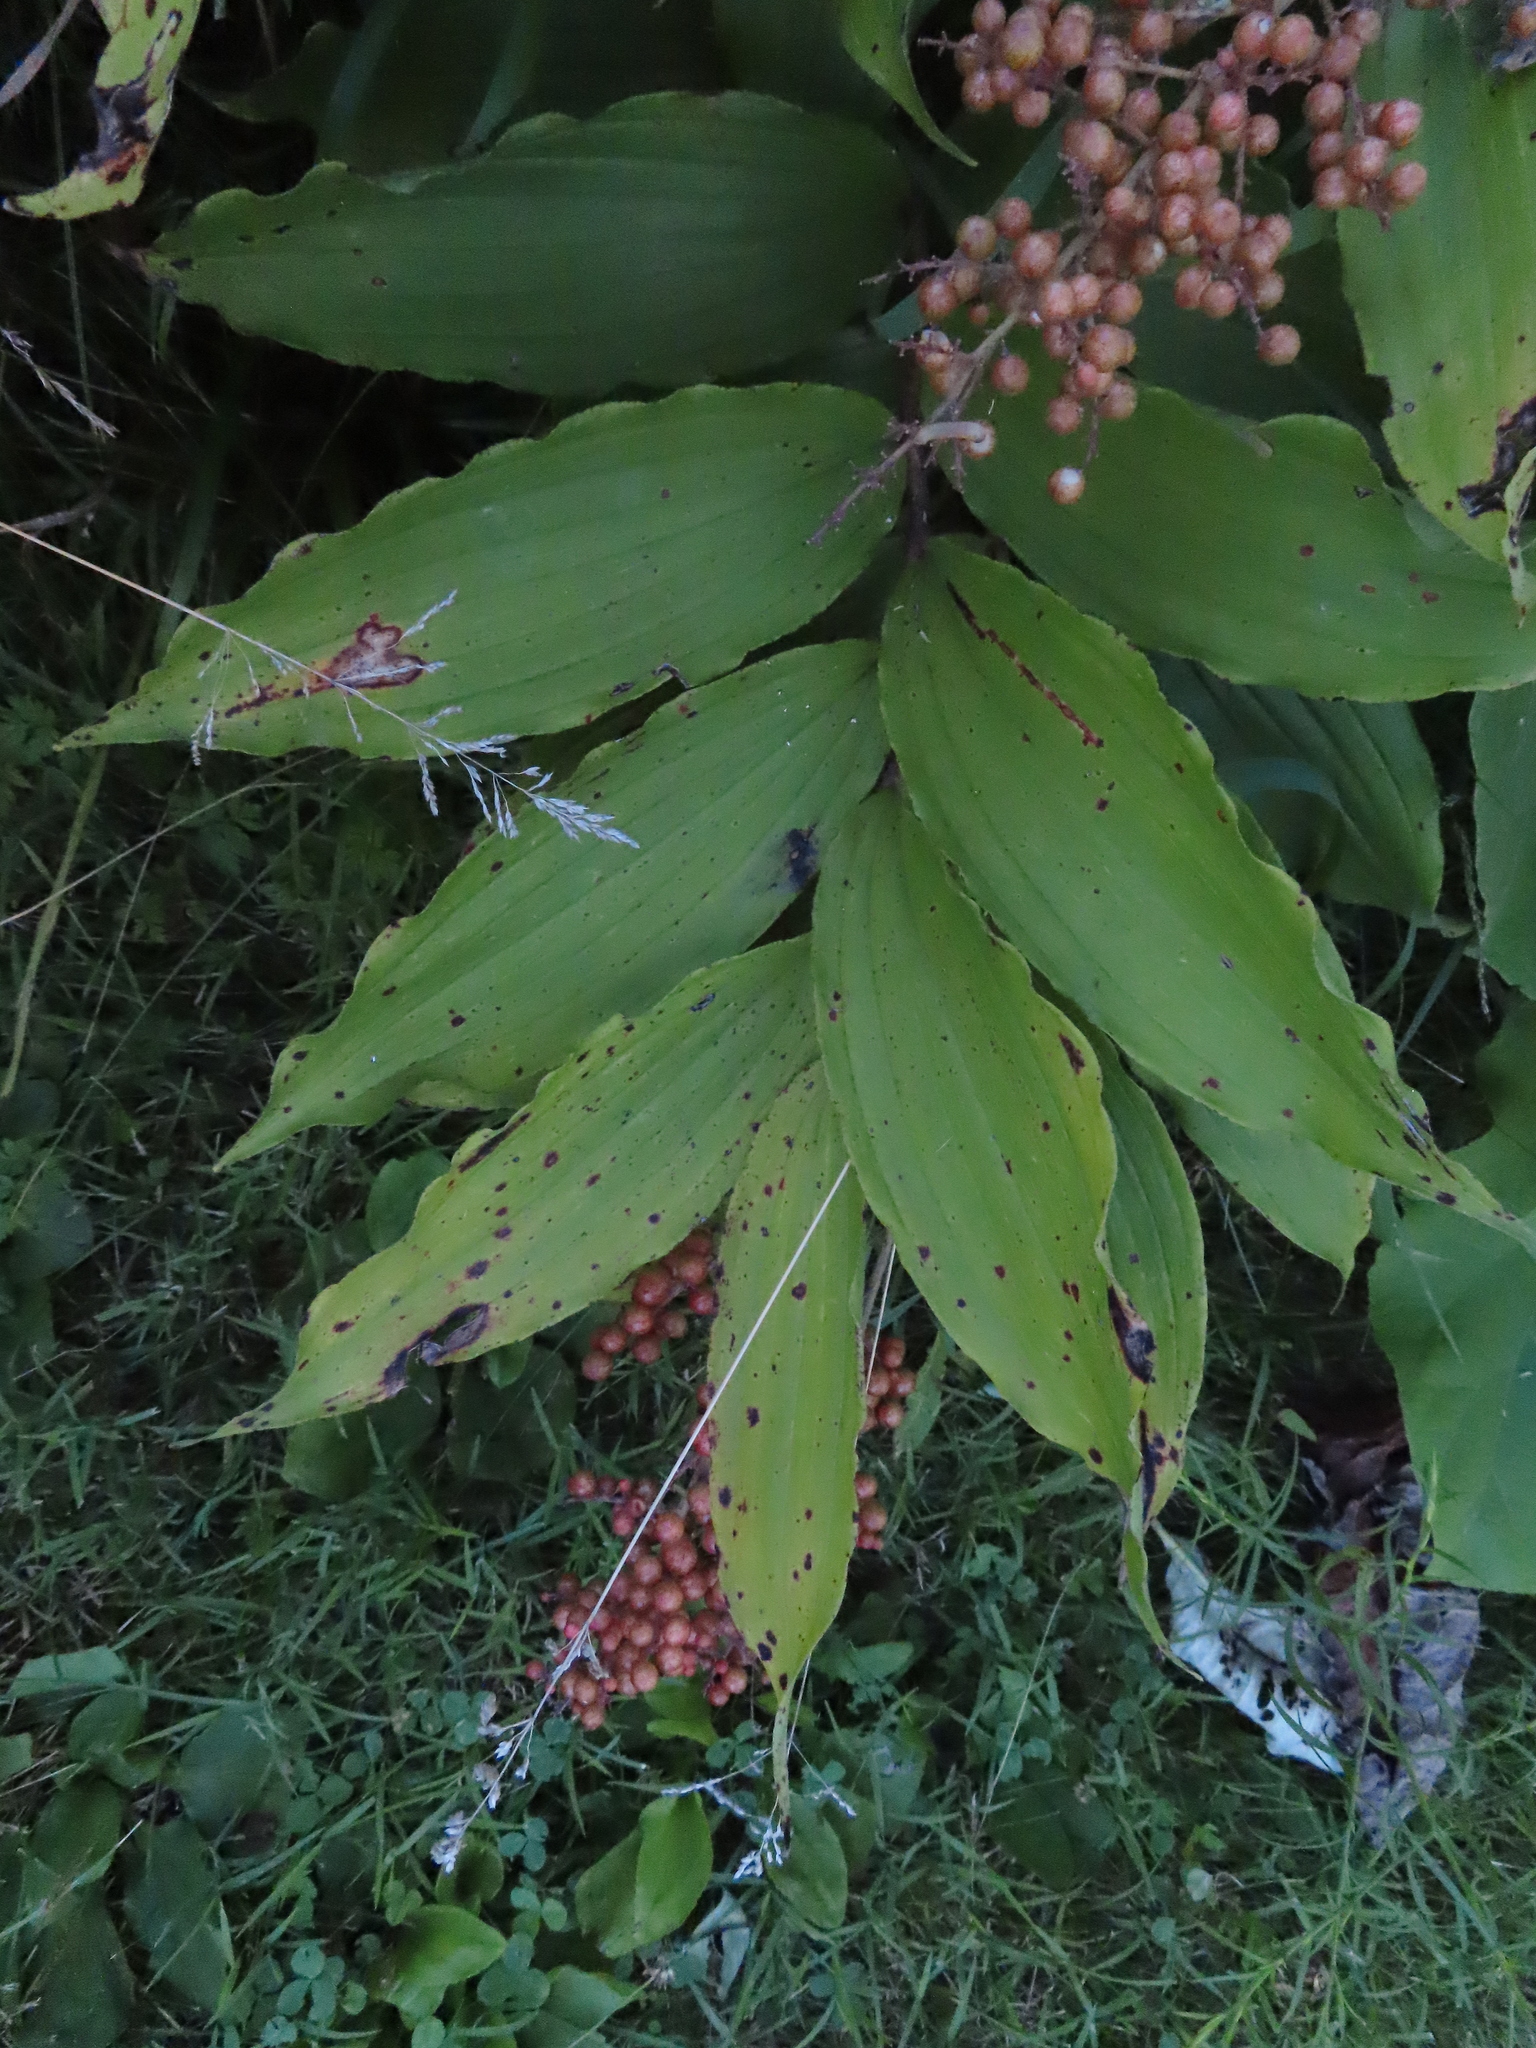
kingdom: Plantae
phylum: Tracheophyta
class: Liliopsida
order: Asparagales
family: Asparagaceae
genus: Maianthemum
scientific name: Maianthemum racemosum
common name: False spikenard
